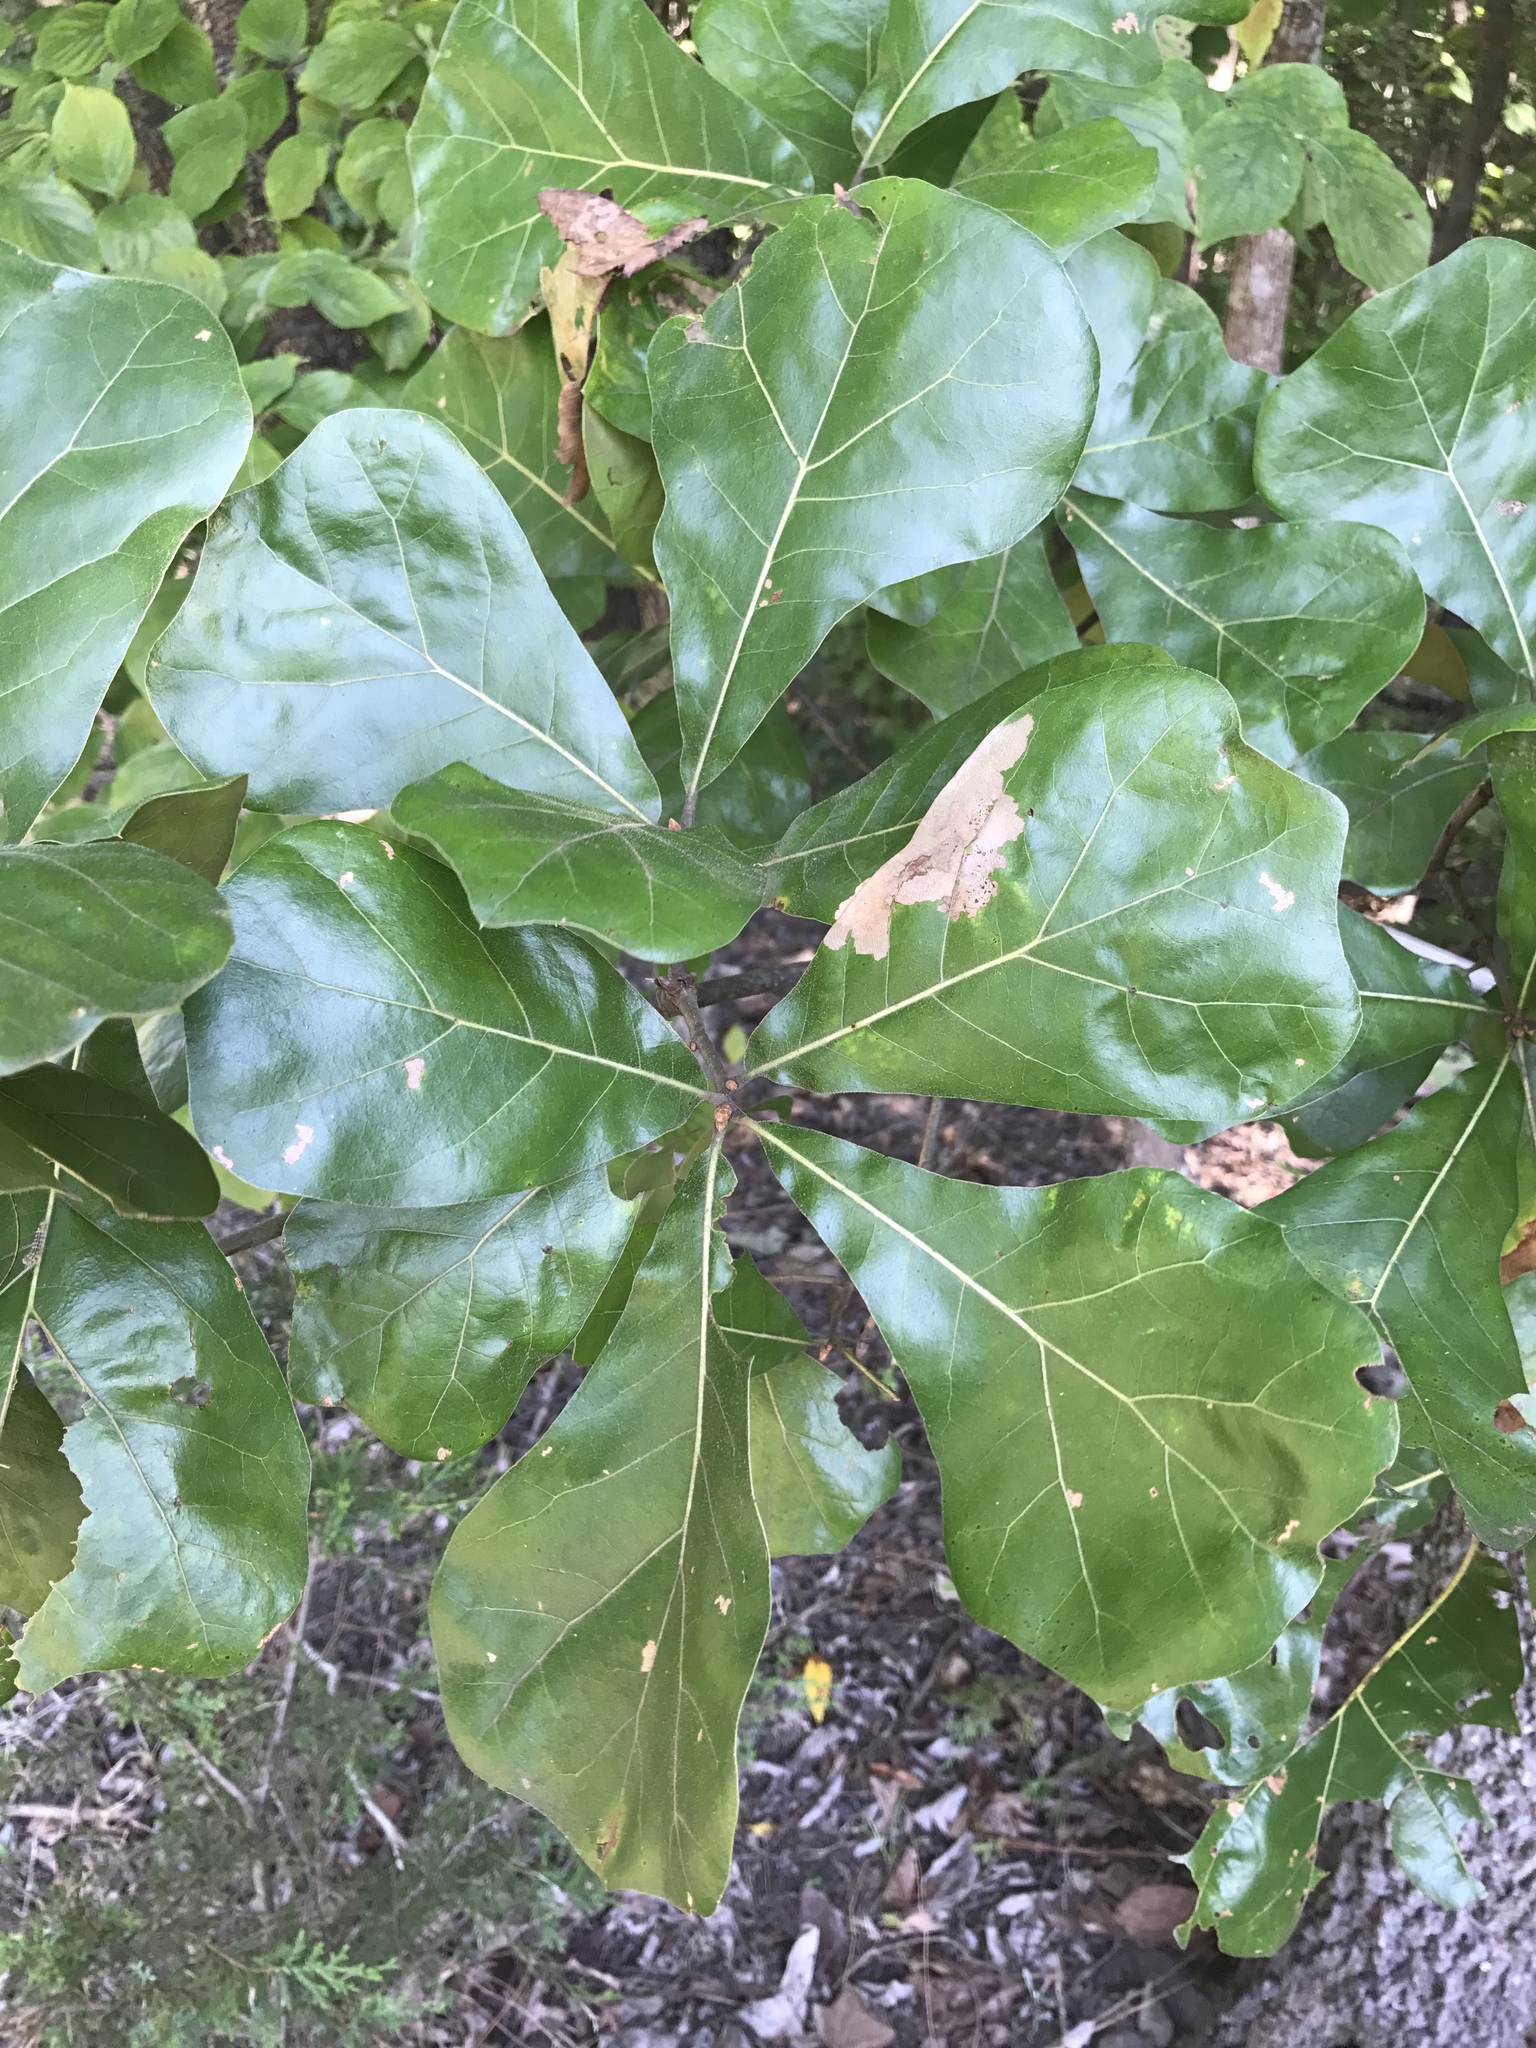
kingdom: Plantae
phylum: Tracheophyta
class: Magnoliopsida
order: Fagales
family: Fagaceae
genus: Quercus
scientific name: Quercus marilandica
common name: Blackjack oak
